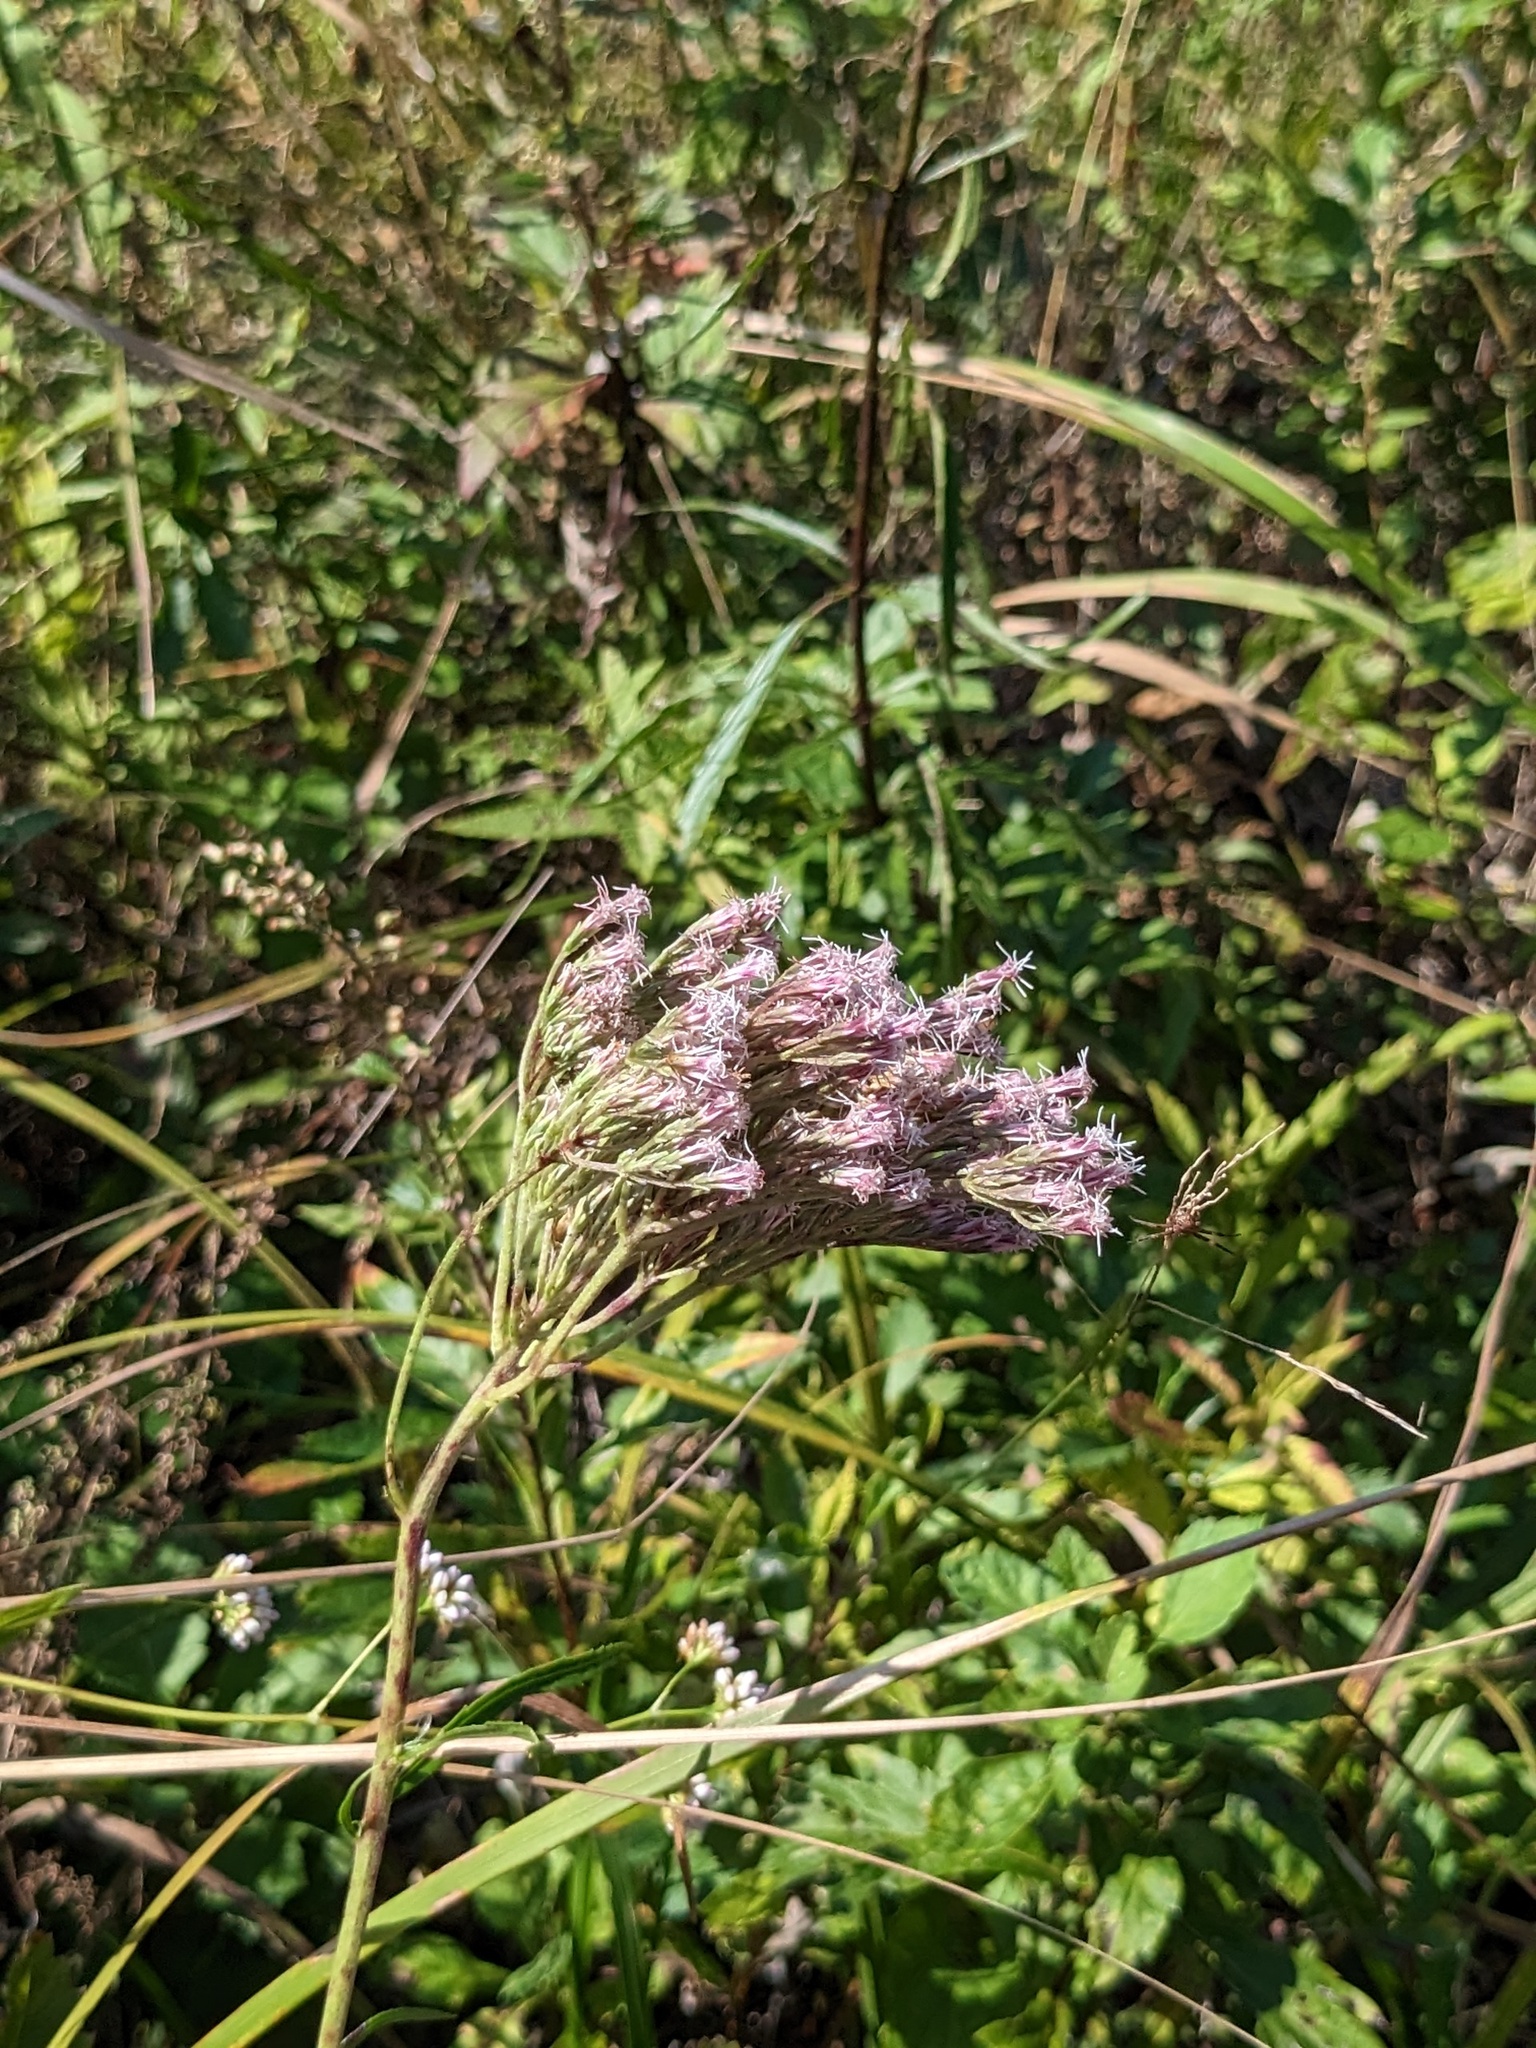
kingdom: Plantae
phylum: Tracheophyta
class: Magnoliopsida
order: Asterales
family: Asteraceae
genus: Eupatorium
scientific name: Eupatorium lindleyanum
